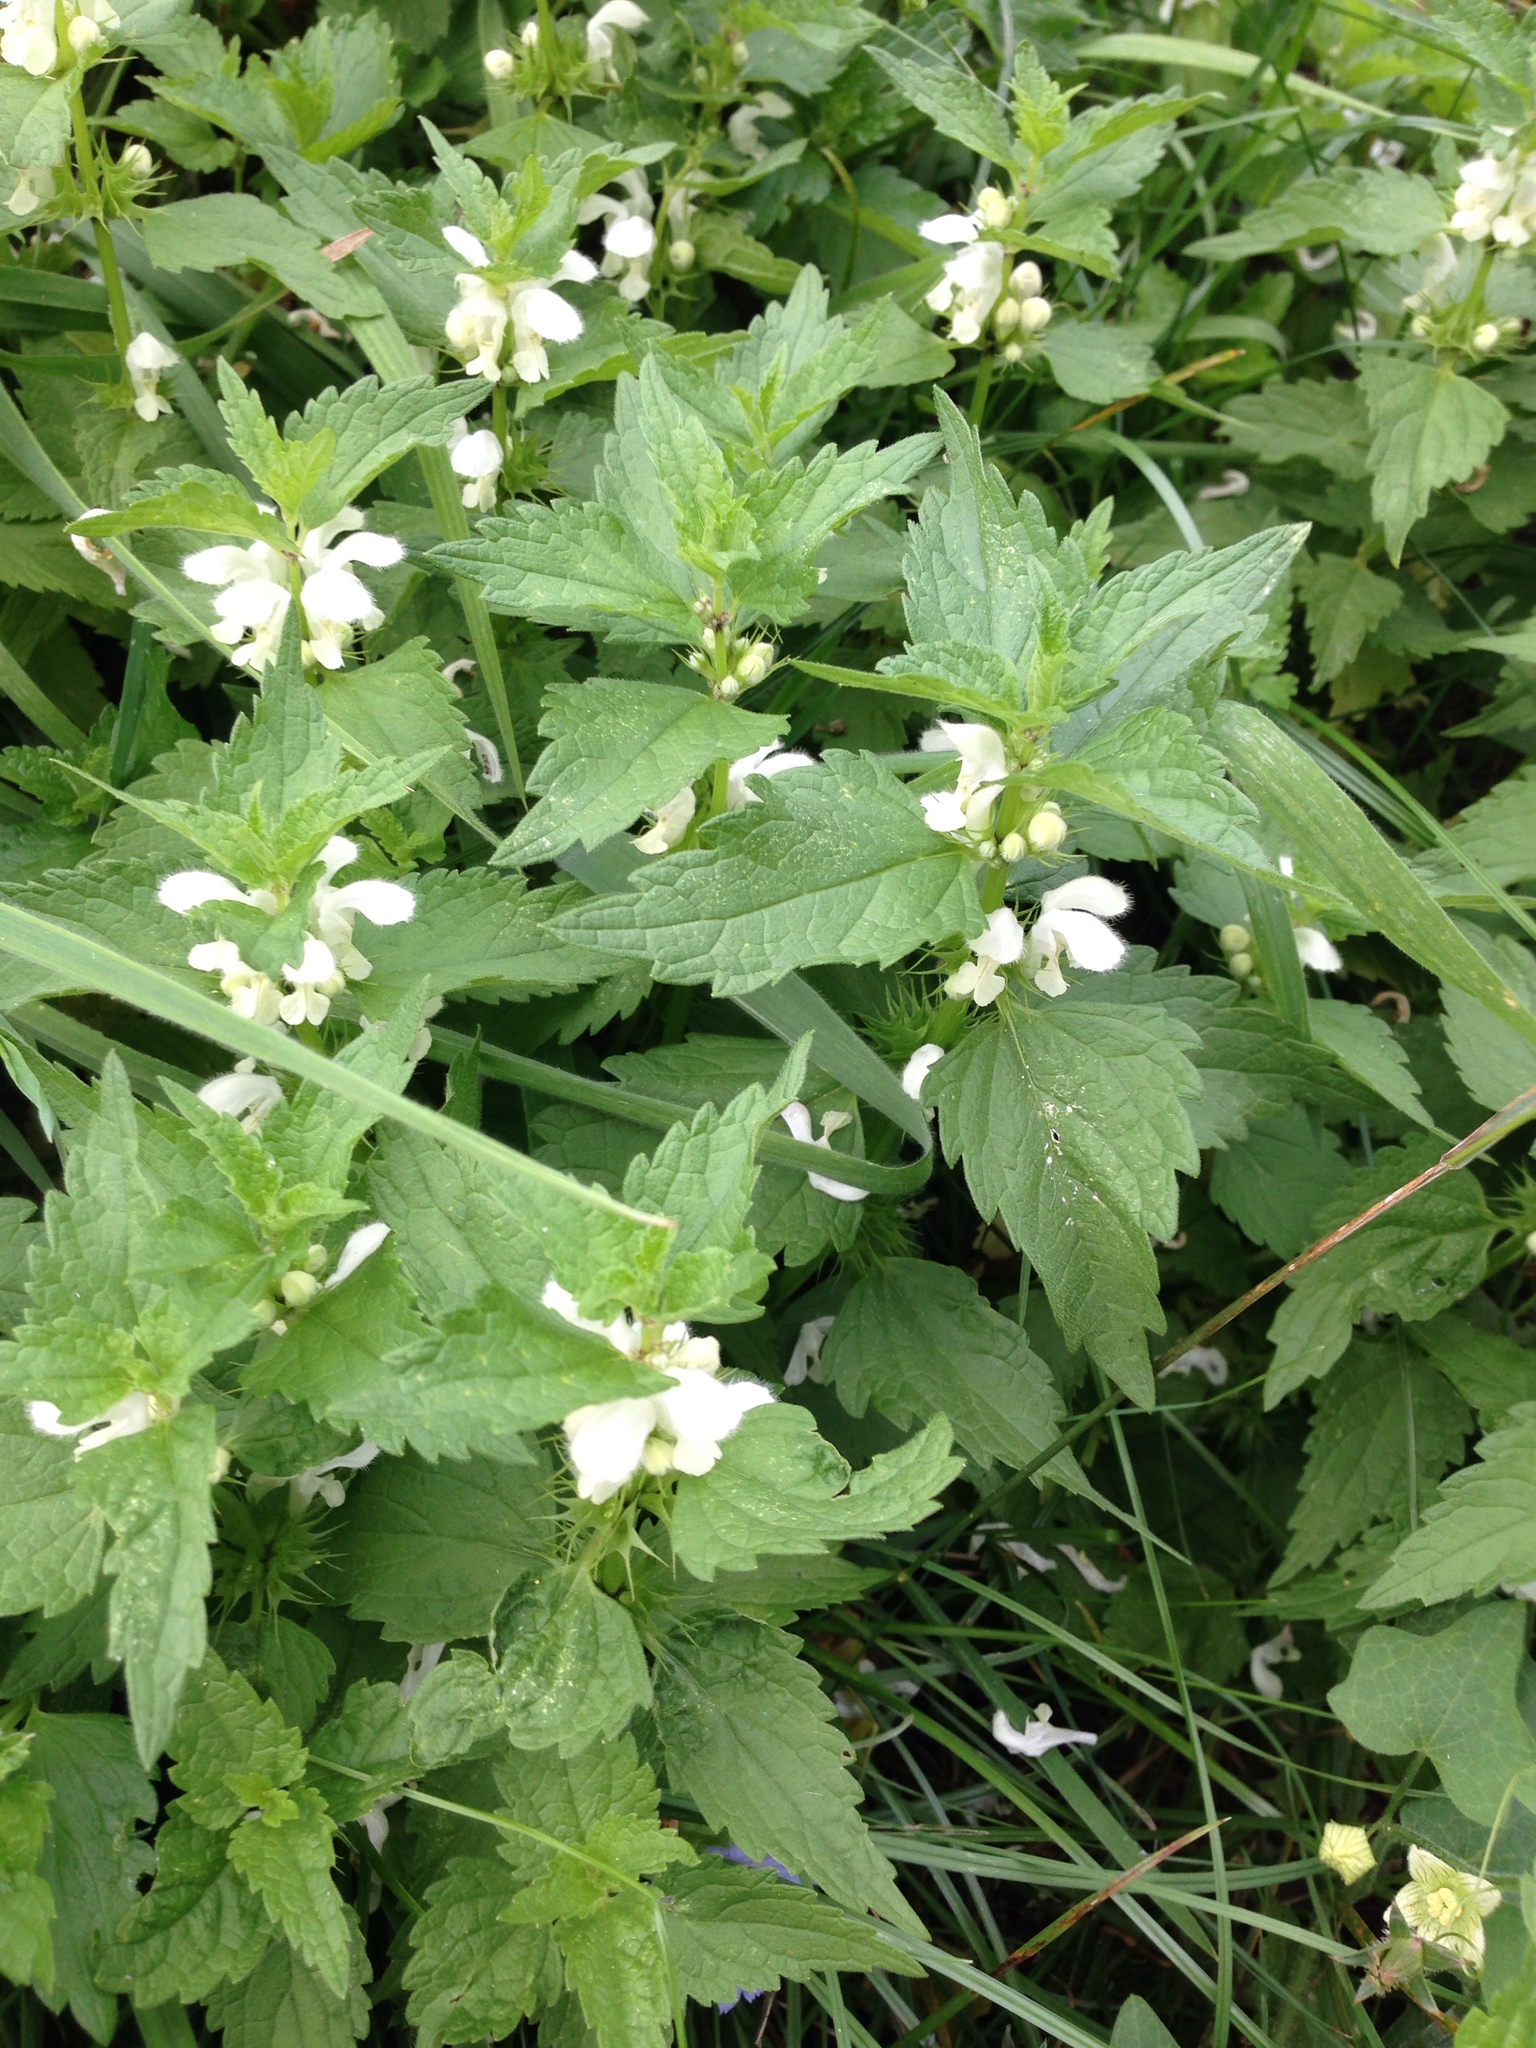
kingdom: Plantae
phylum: Tracheophyta
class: Magnoliopsida
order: Lamiales
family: Lamiaceae
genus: Lamium
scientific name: Lamium album
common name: White dead-nettle
